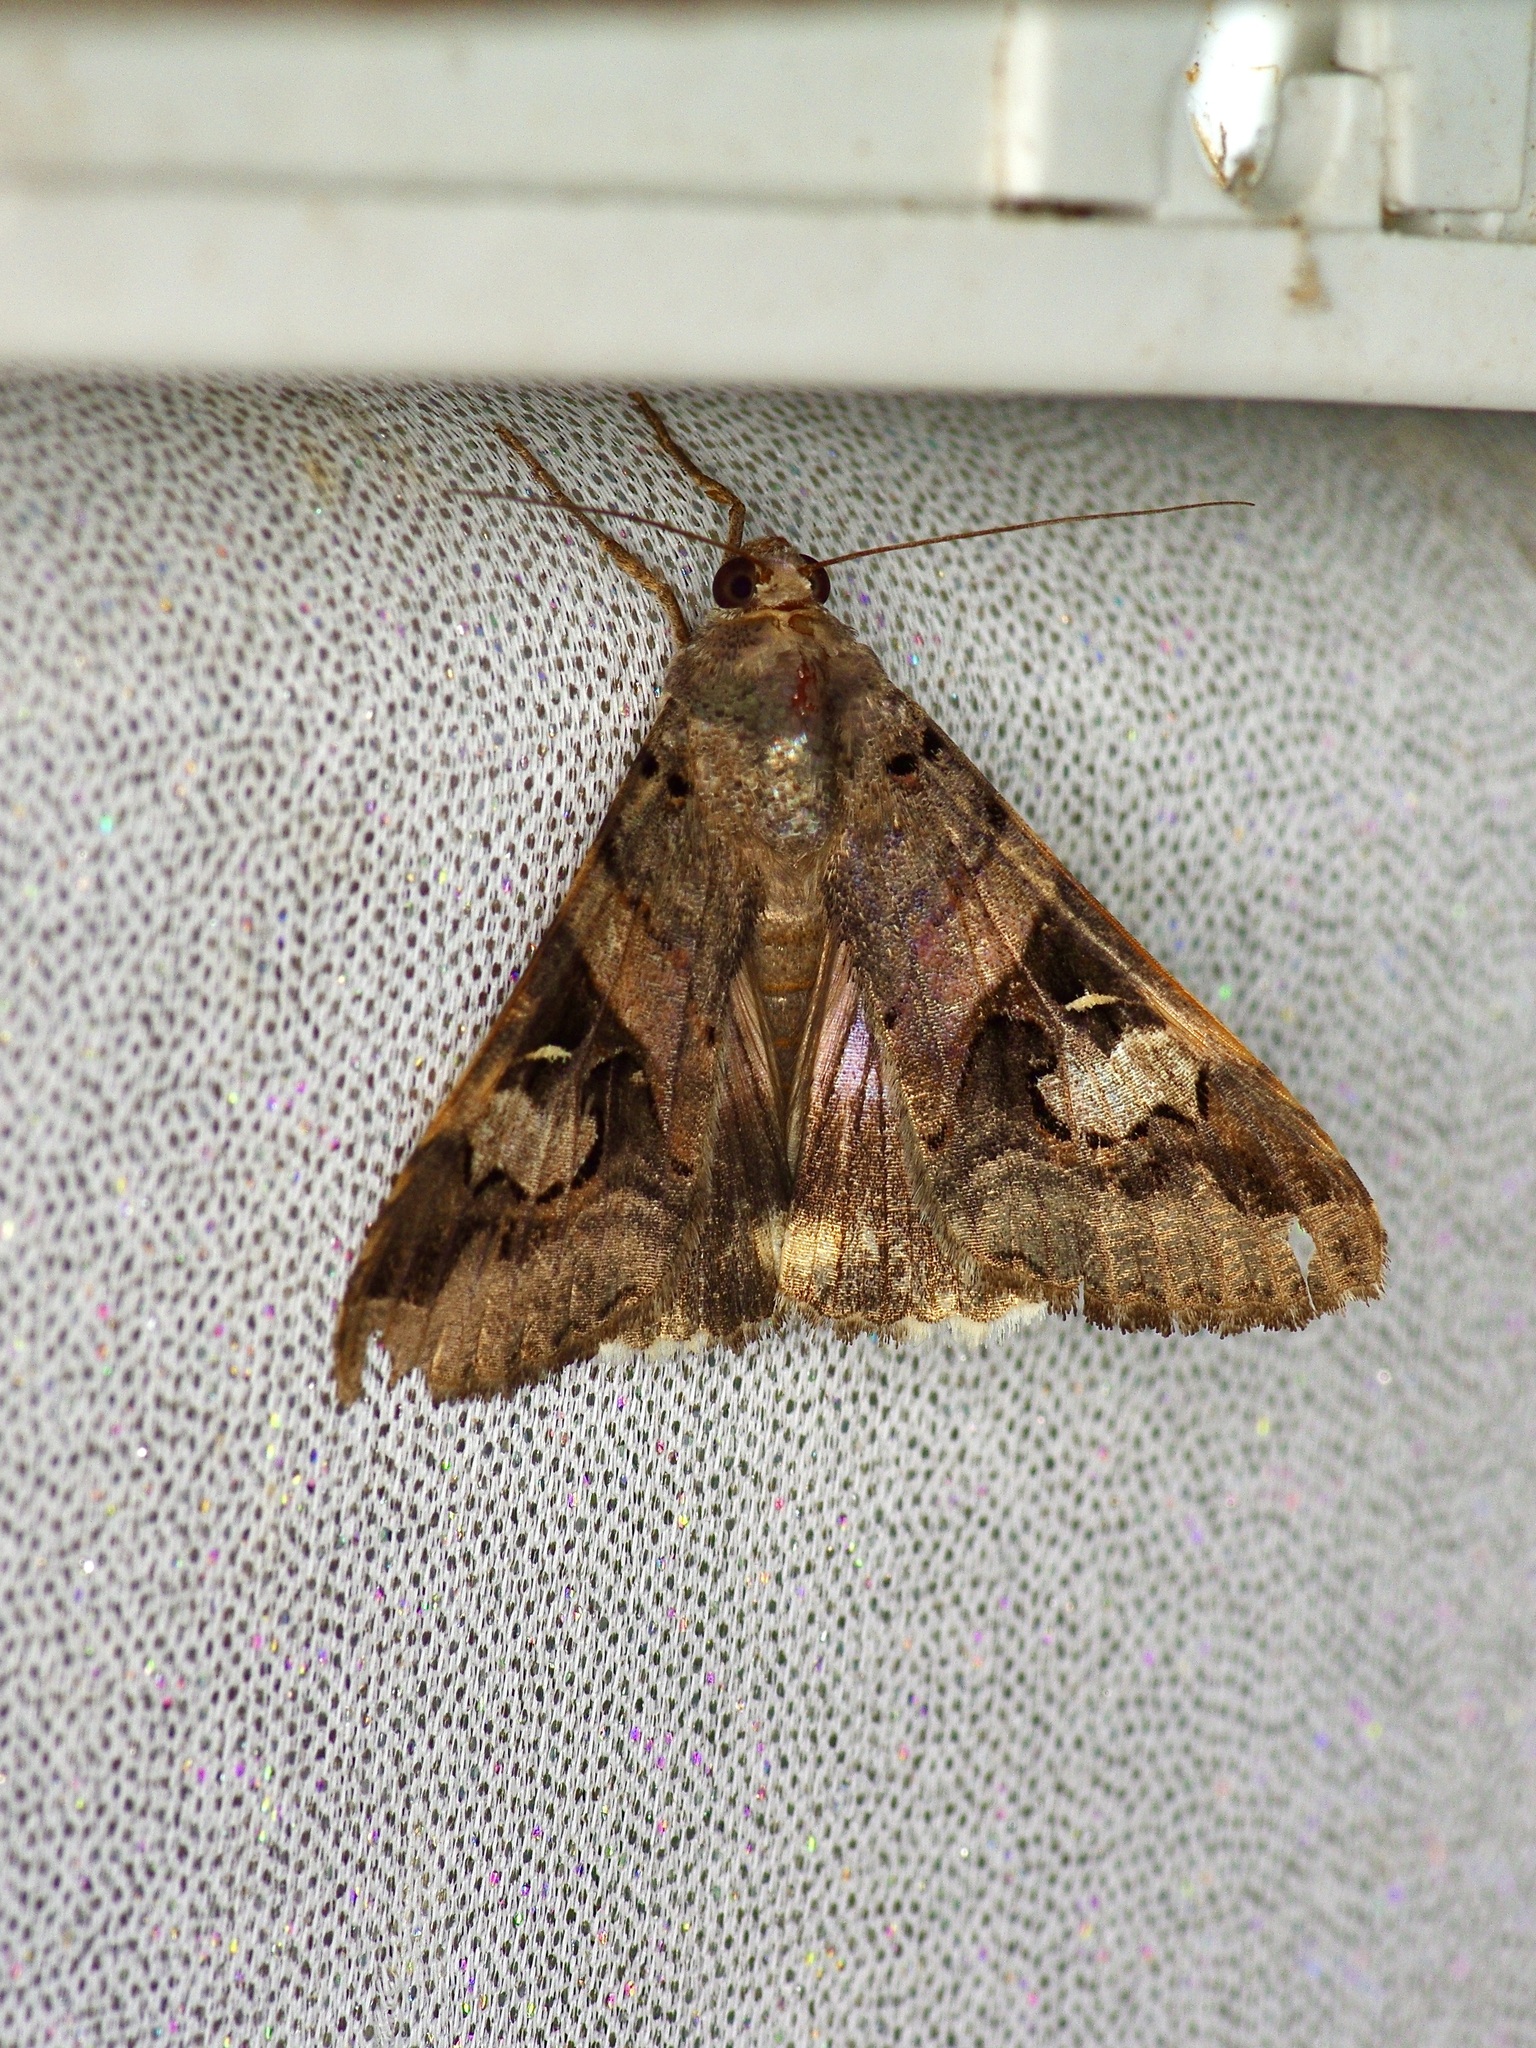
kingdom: Animalia
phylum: Arthropoda
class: Insecta
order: Lepidoptera
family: Erebidae
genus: Melipotis
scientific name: Melipotis indomita
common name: Moth
